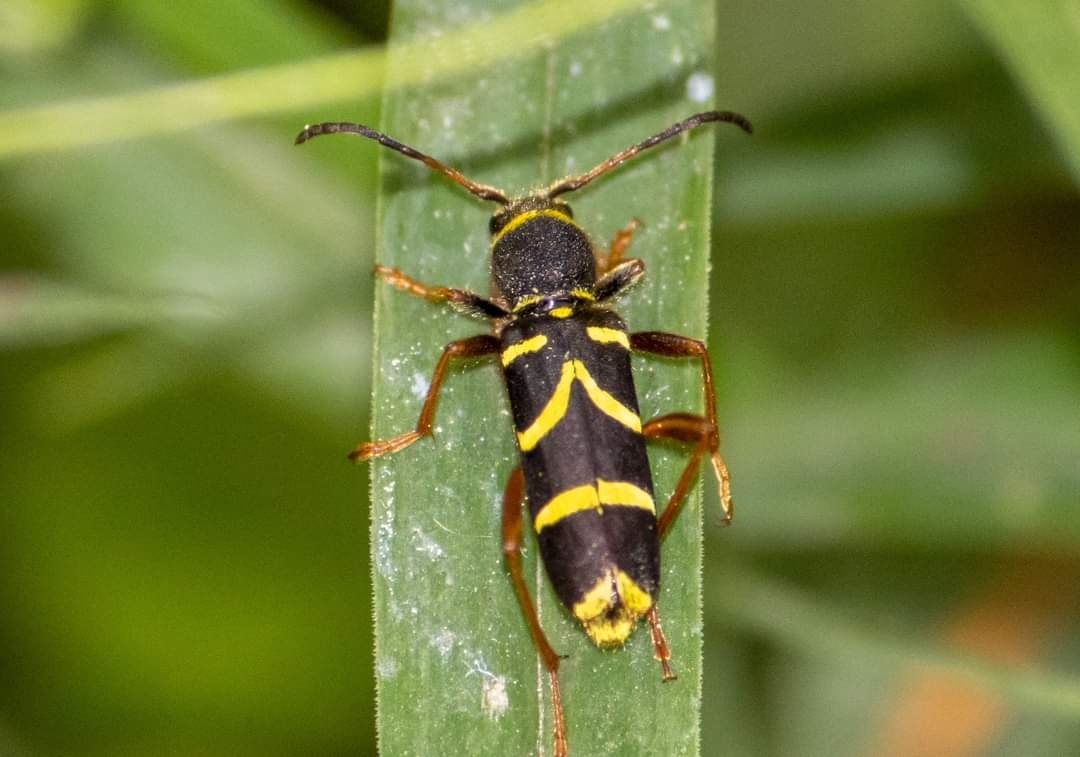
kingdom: Animalia
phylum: Arthropoda
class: Insecta
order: Coleoptera
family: Cerambycidae
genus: Clytus
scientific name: Clytus arietis
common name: Wasp beetle
